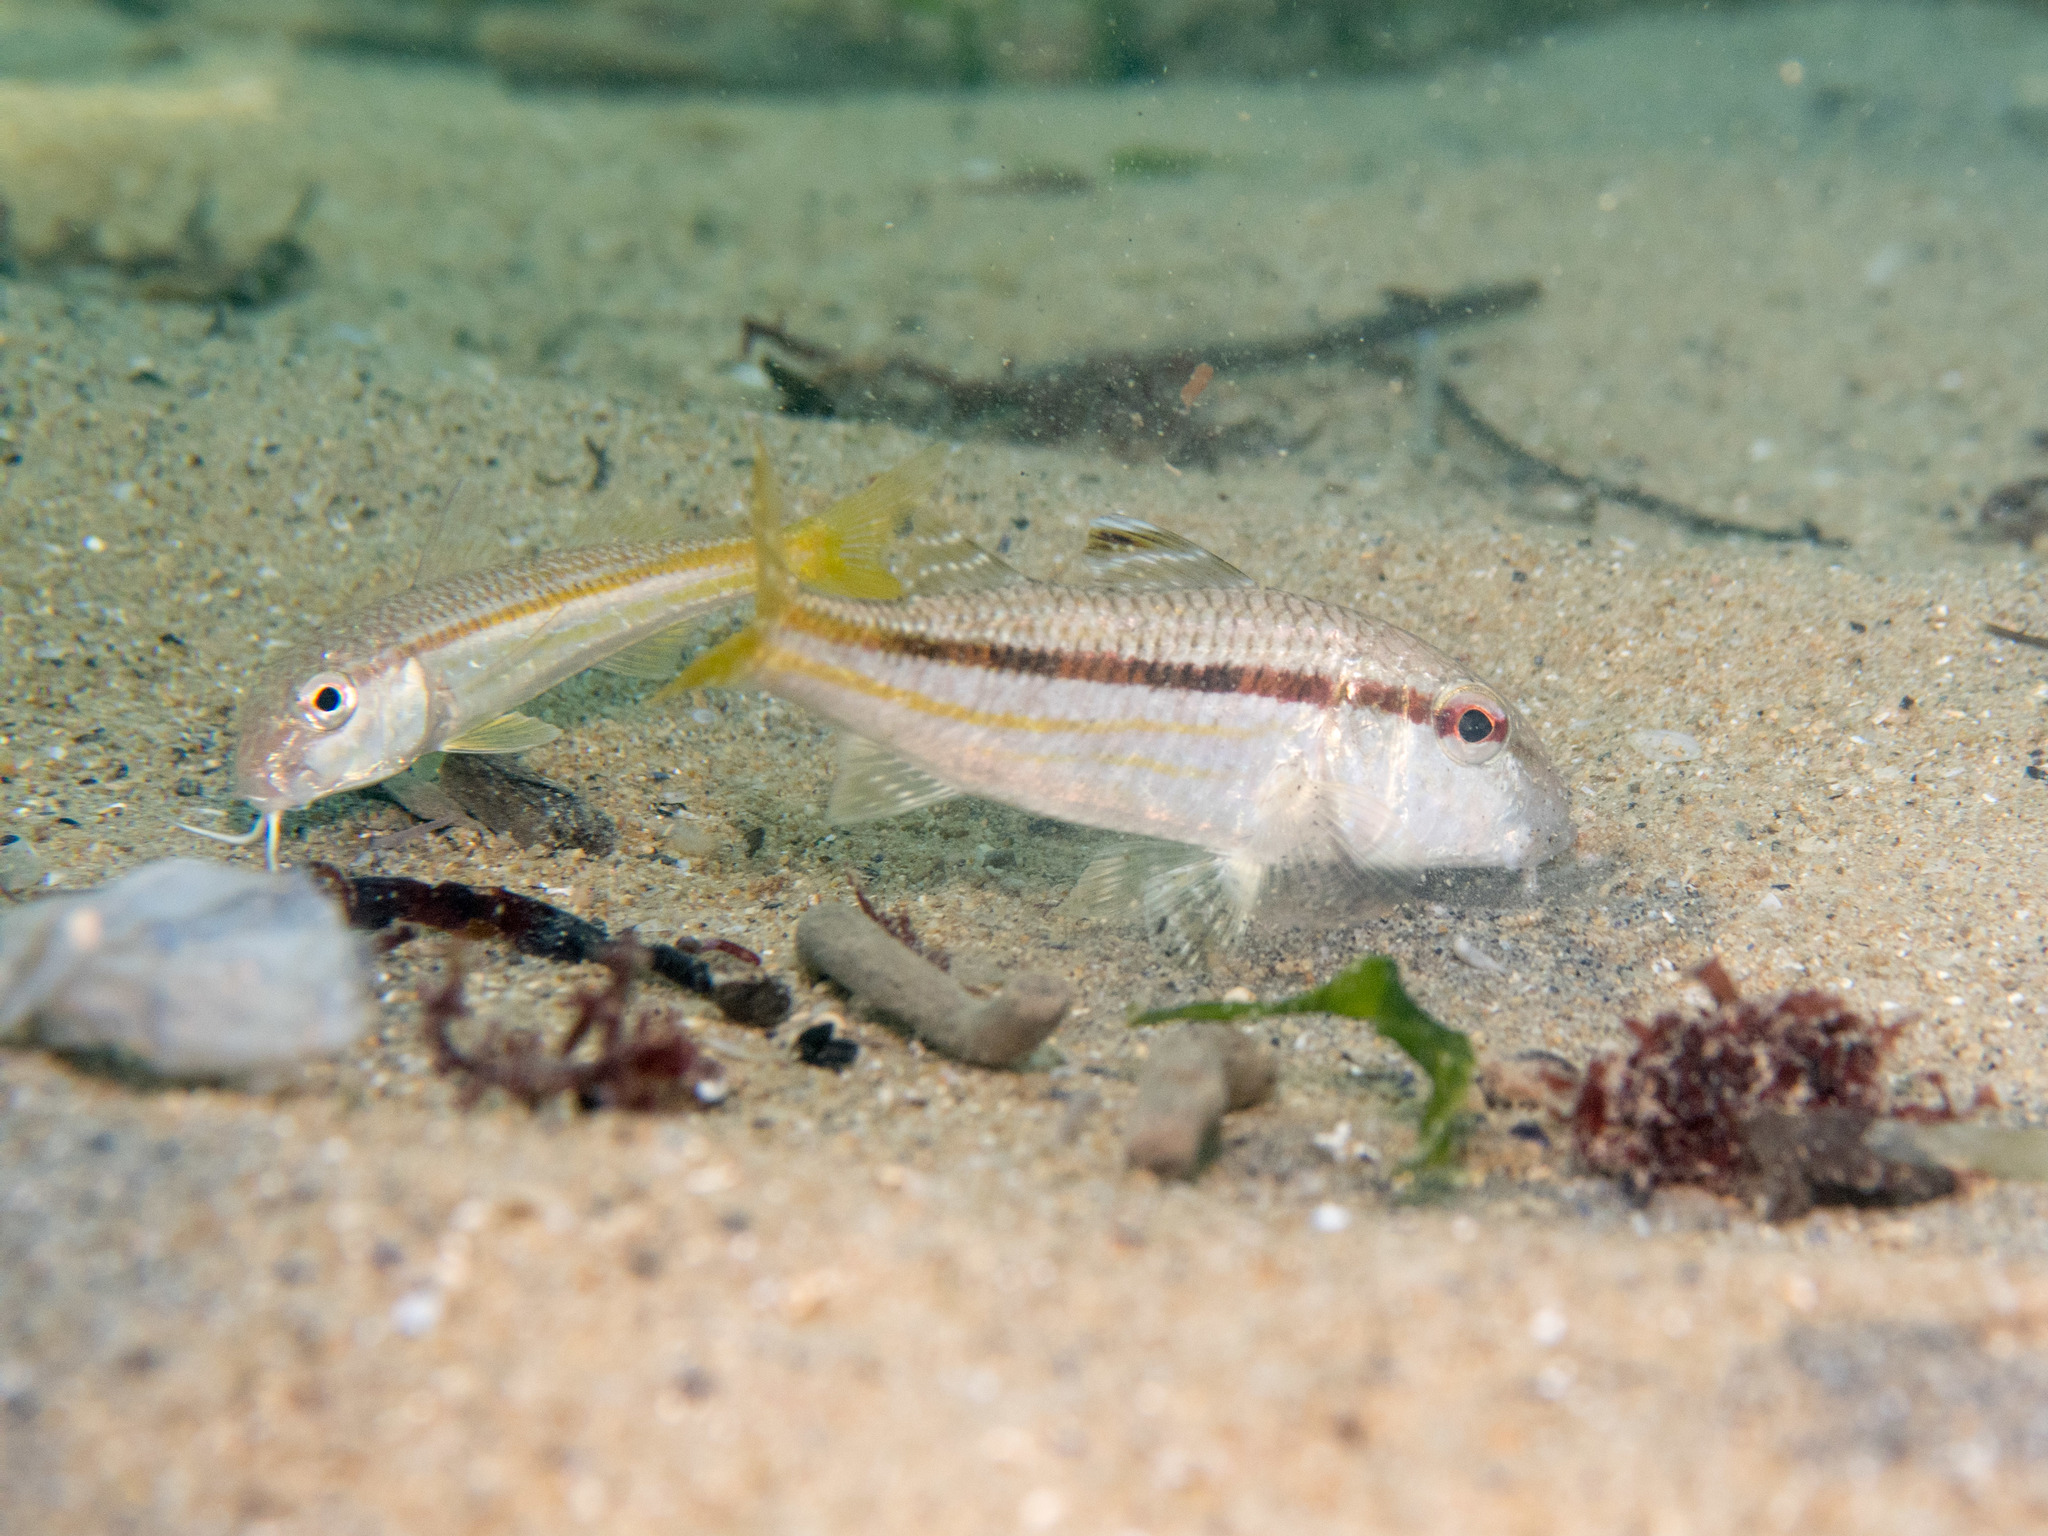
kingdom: Animalia
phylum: Chordata
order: Perciformes
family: Mullidae
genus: Mullus
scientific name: Mullus surmuletus
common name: Red mullet
